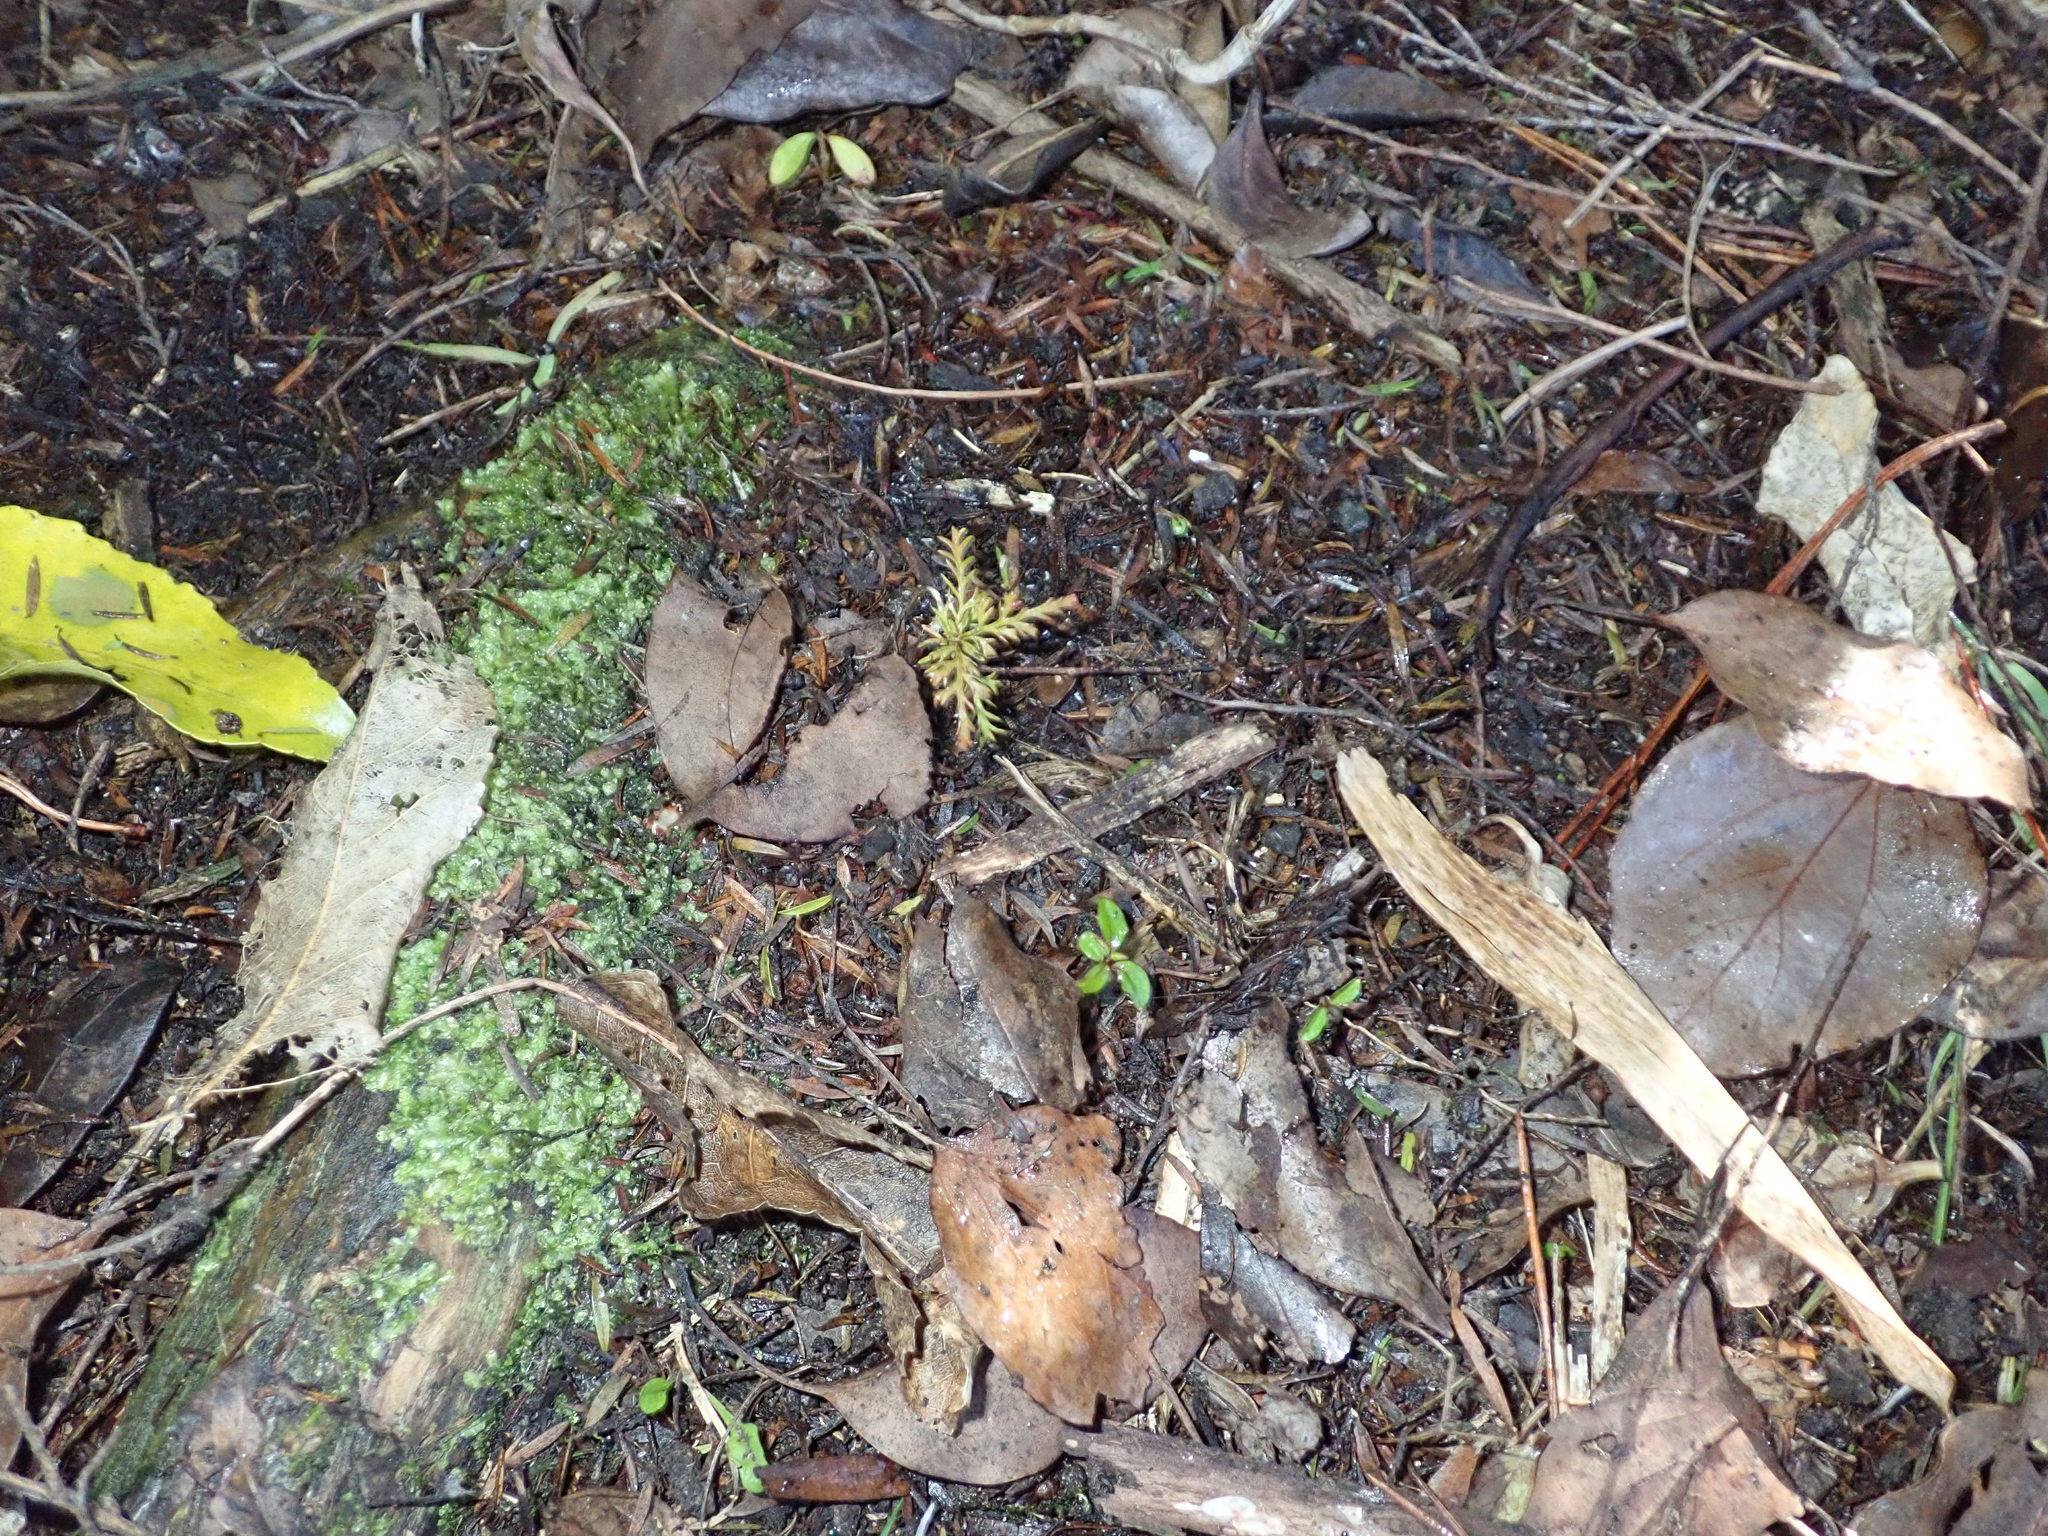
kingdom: Plantae
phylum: Tracheophyta
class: Pinopsida
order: Pinales
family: Phyllocladaceae
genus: Phyllocladus
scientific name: Phyllocladus trichomanoides
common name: Celery pine
